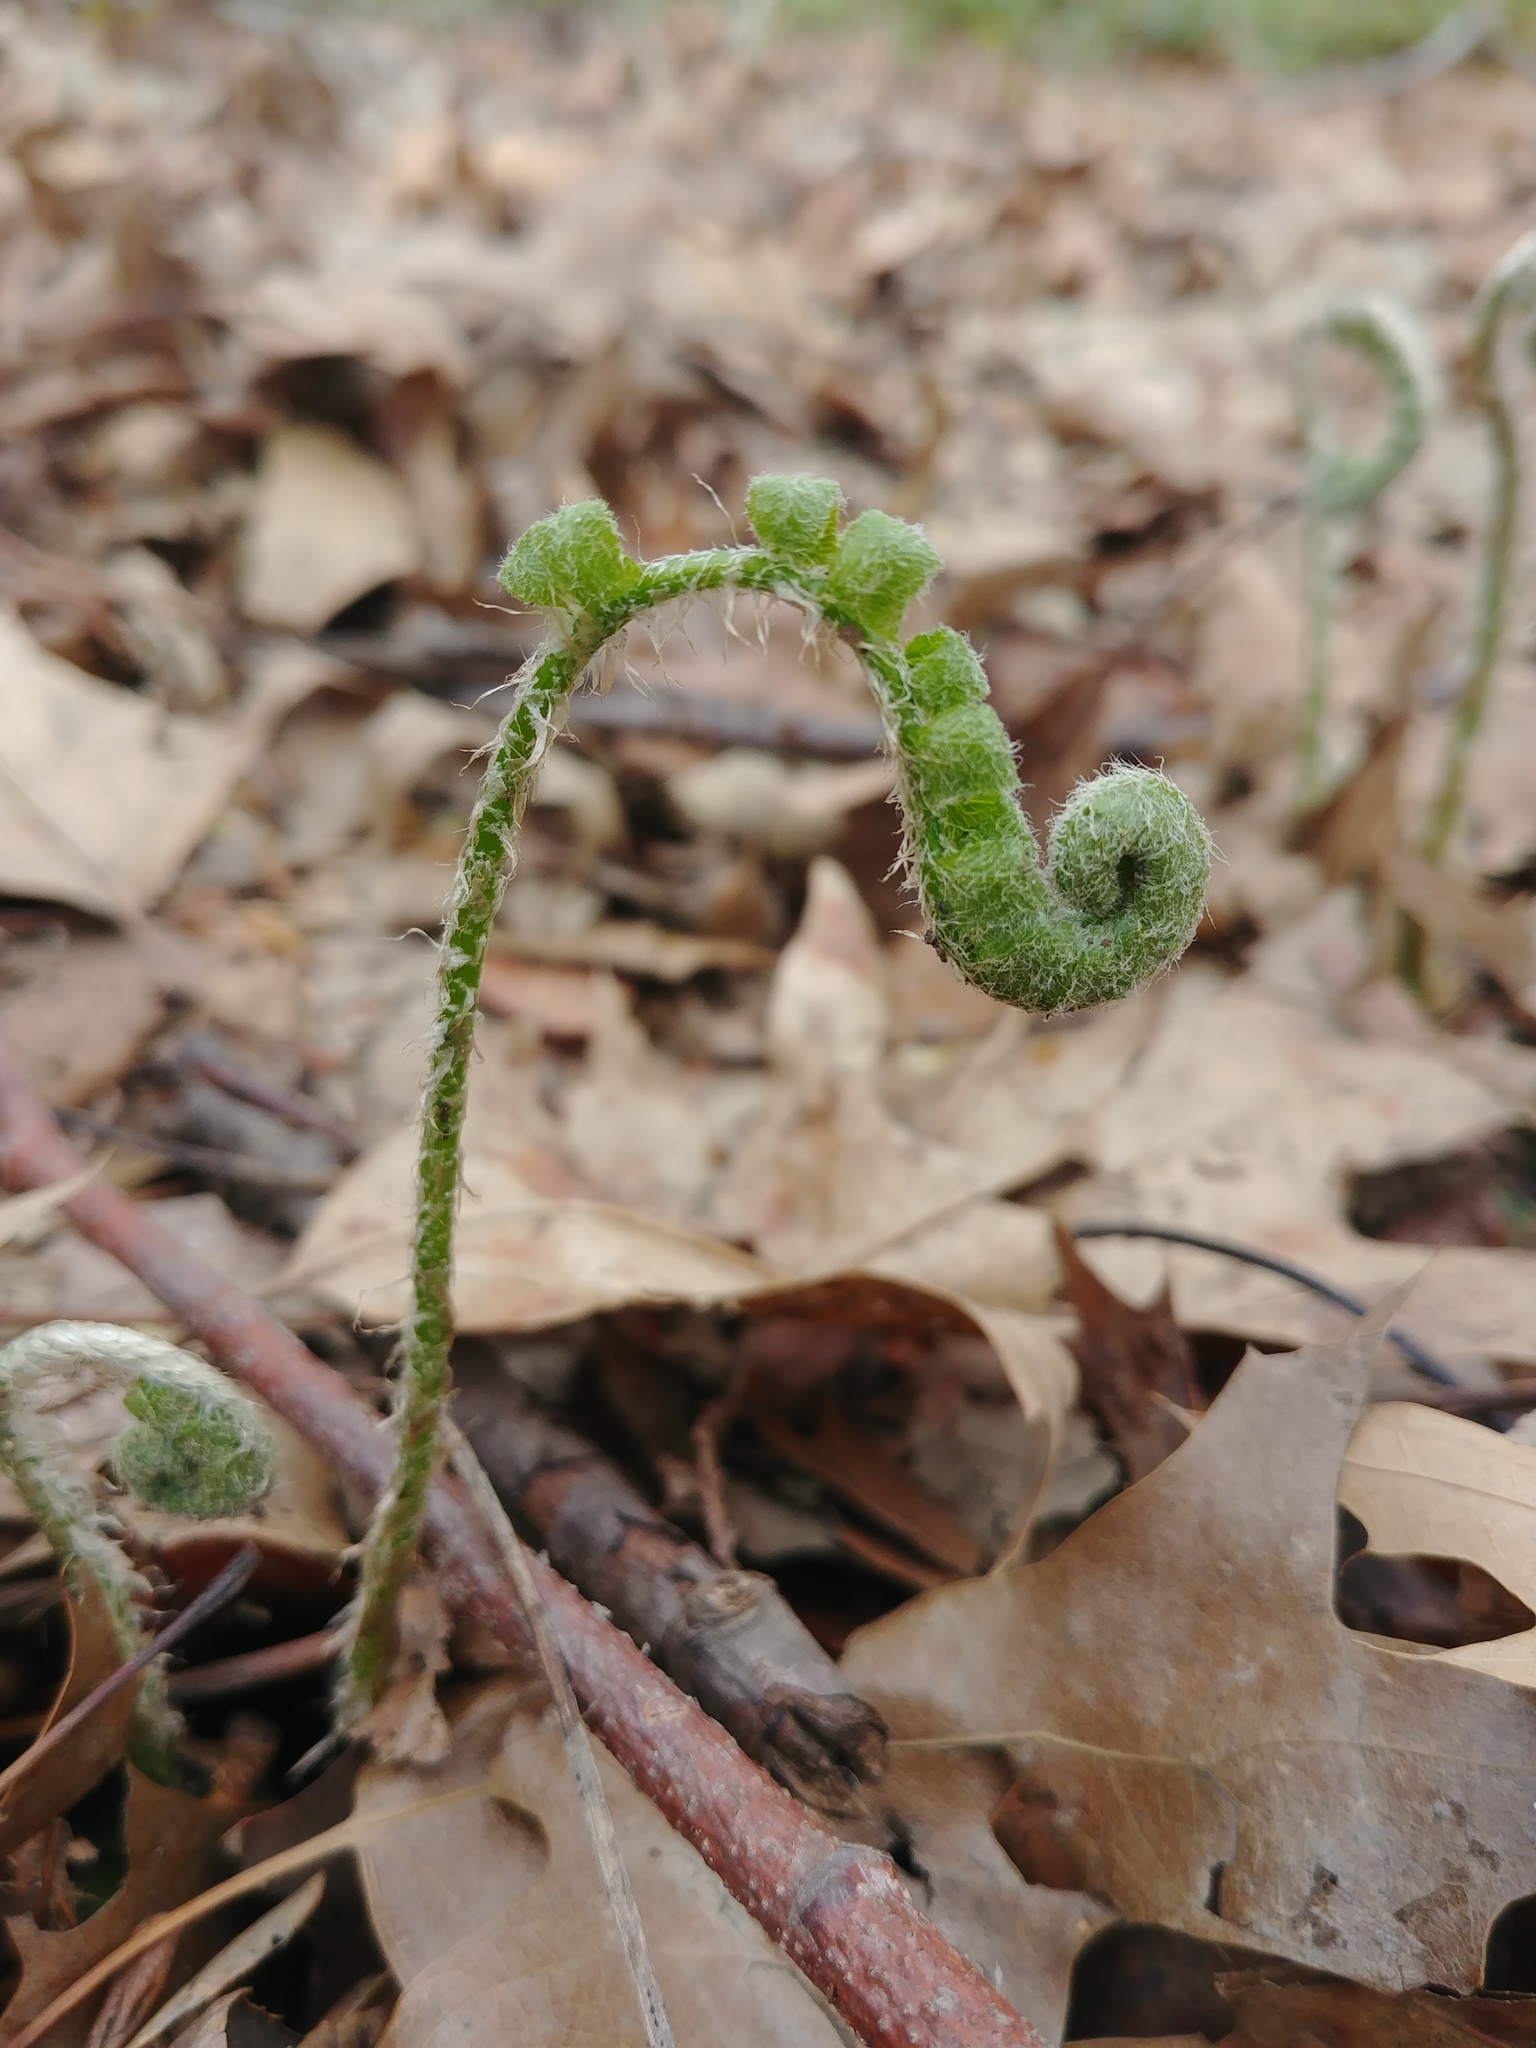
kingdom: Plantae
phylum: Tracheophyta
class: Polypodiopsida
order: Polypodiales
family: Dryopteridaceae
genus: Polystichum
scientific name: Polystichum acrostichoides
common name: Christmas fern
